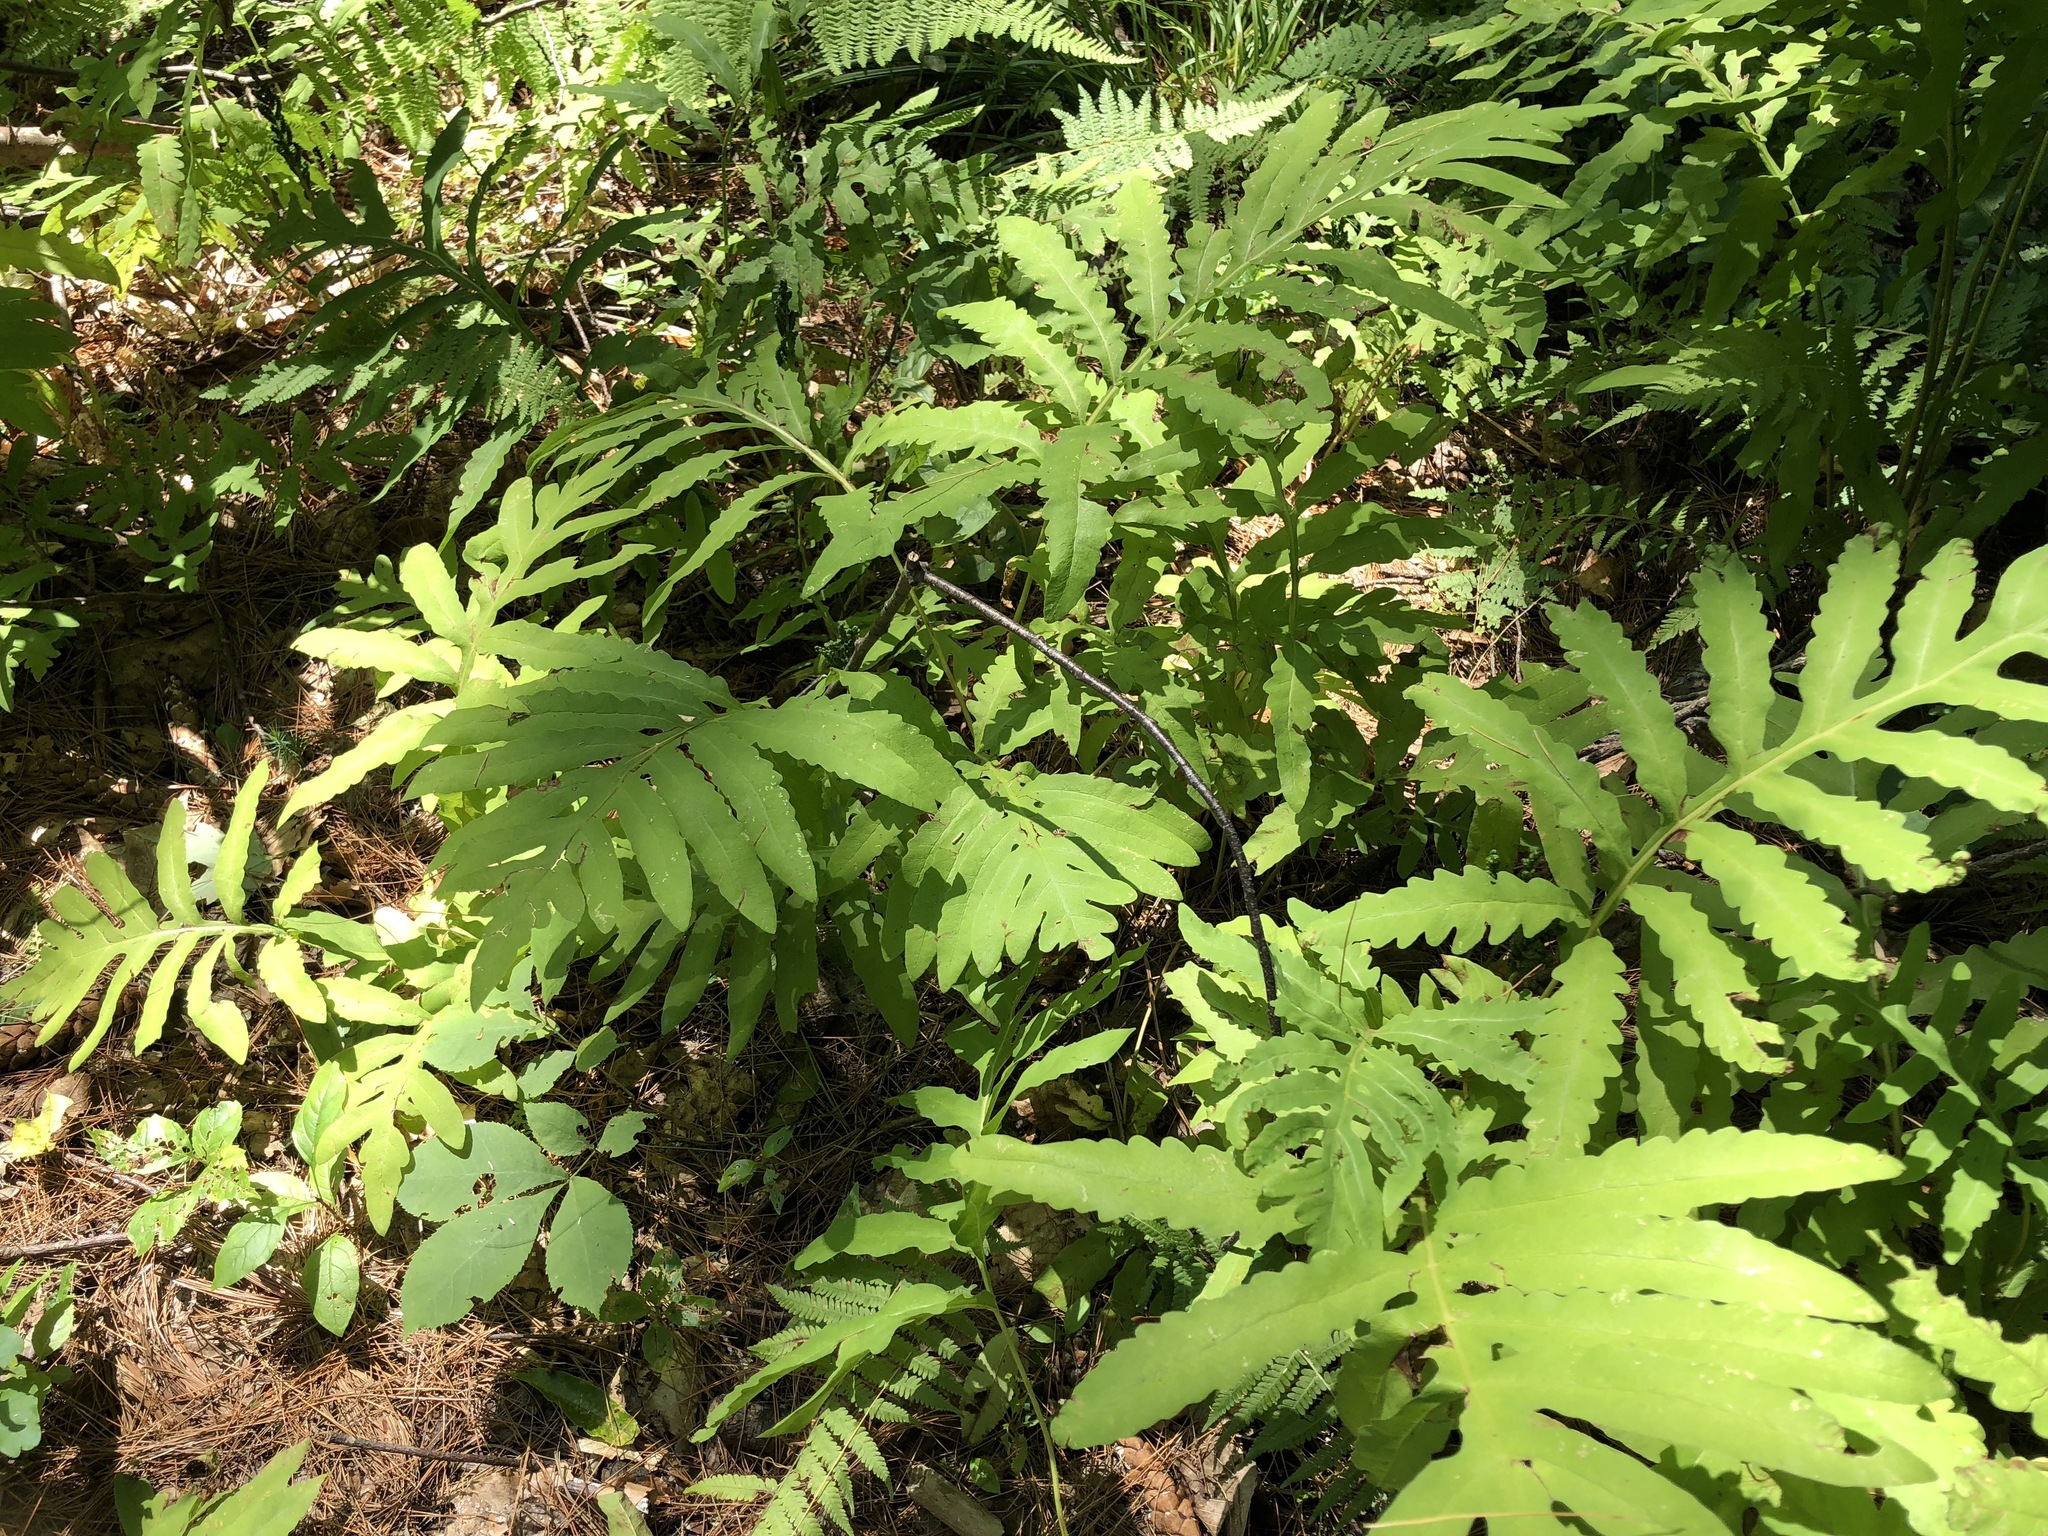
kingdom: Plantae
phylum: Tracheophyta
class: Polypodiopsida
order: Polypodiales
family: Onocleaceae
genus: Onoclea
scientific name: Onoclea sensibilis
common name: Sensitive fern
